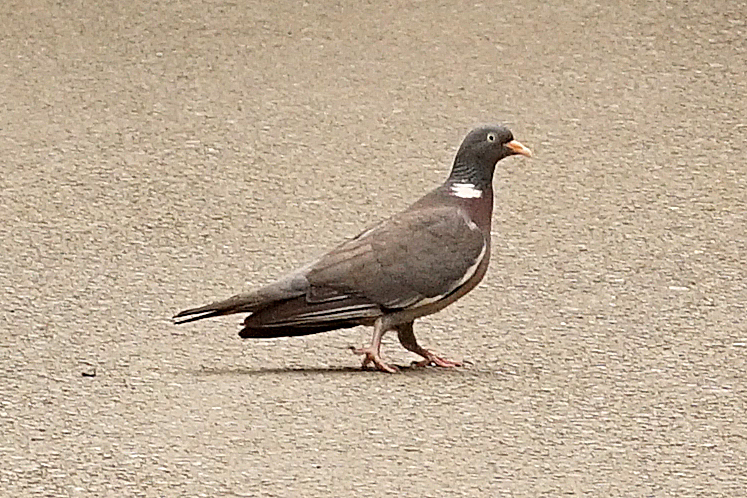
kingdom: Animalia
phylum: Chordata
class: Aves
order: Columbiformes
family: Columbidae
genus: Columba
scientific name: Columba palumbus
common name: Common wood pigeon
